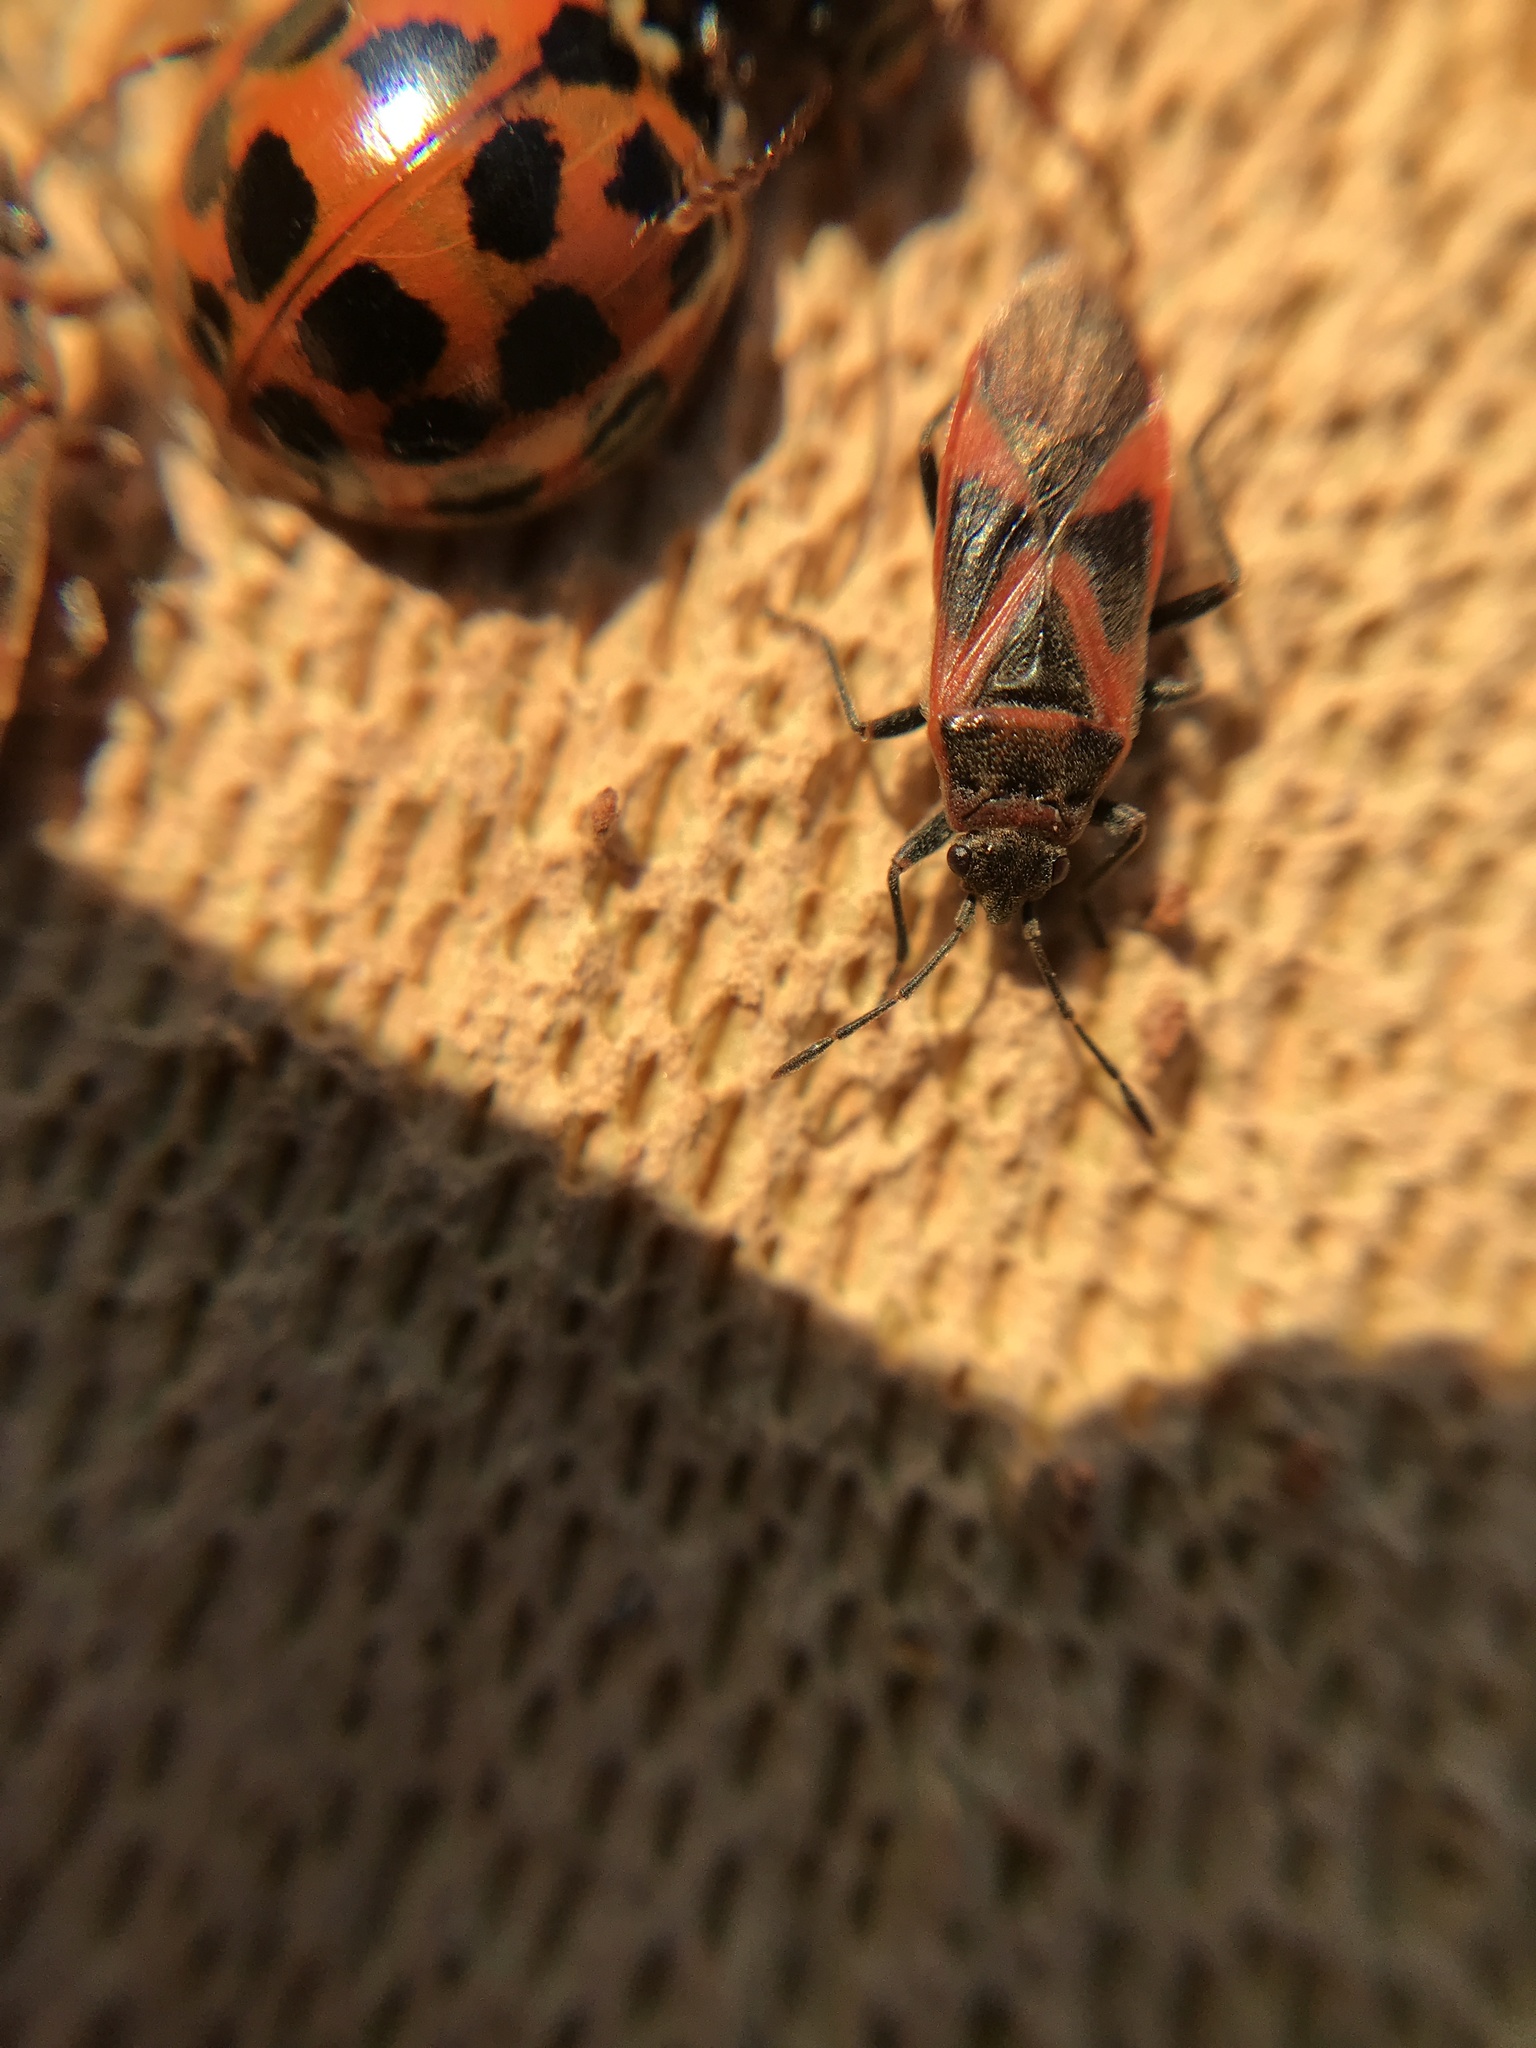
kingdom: Animalia
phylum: Arthropoda
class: Insecta
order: Hemiptera
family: Lygaeidae
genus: Arocatus
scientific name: Arocatus roeselii
